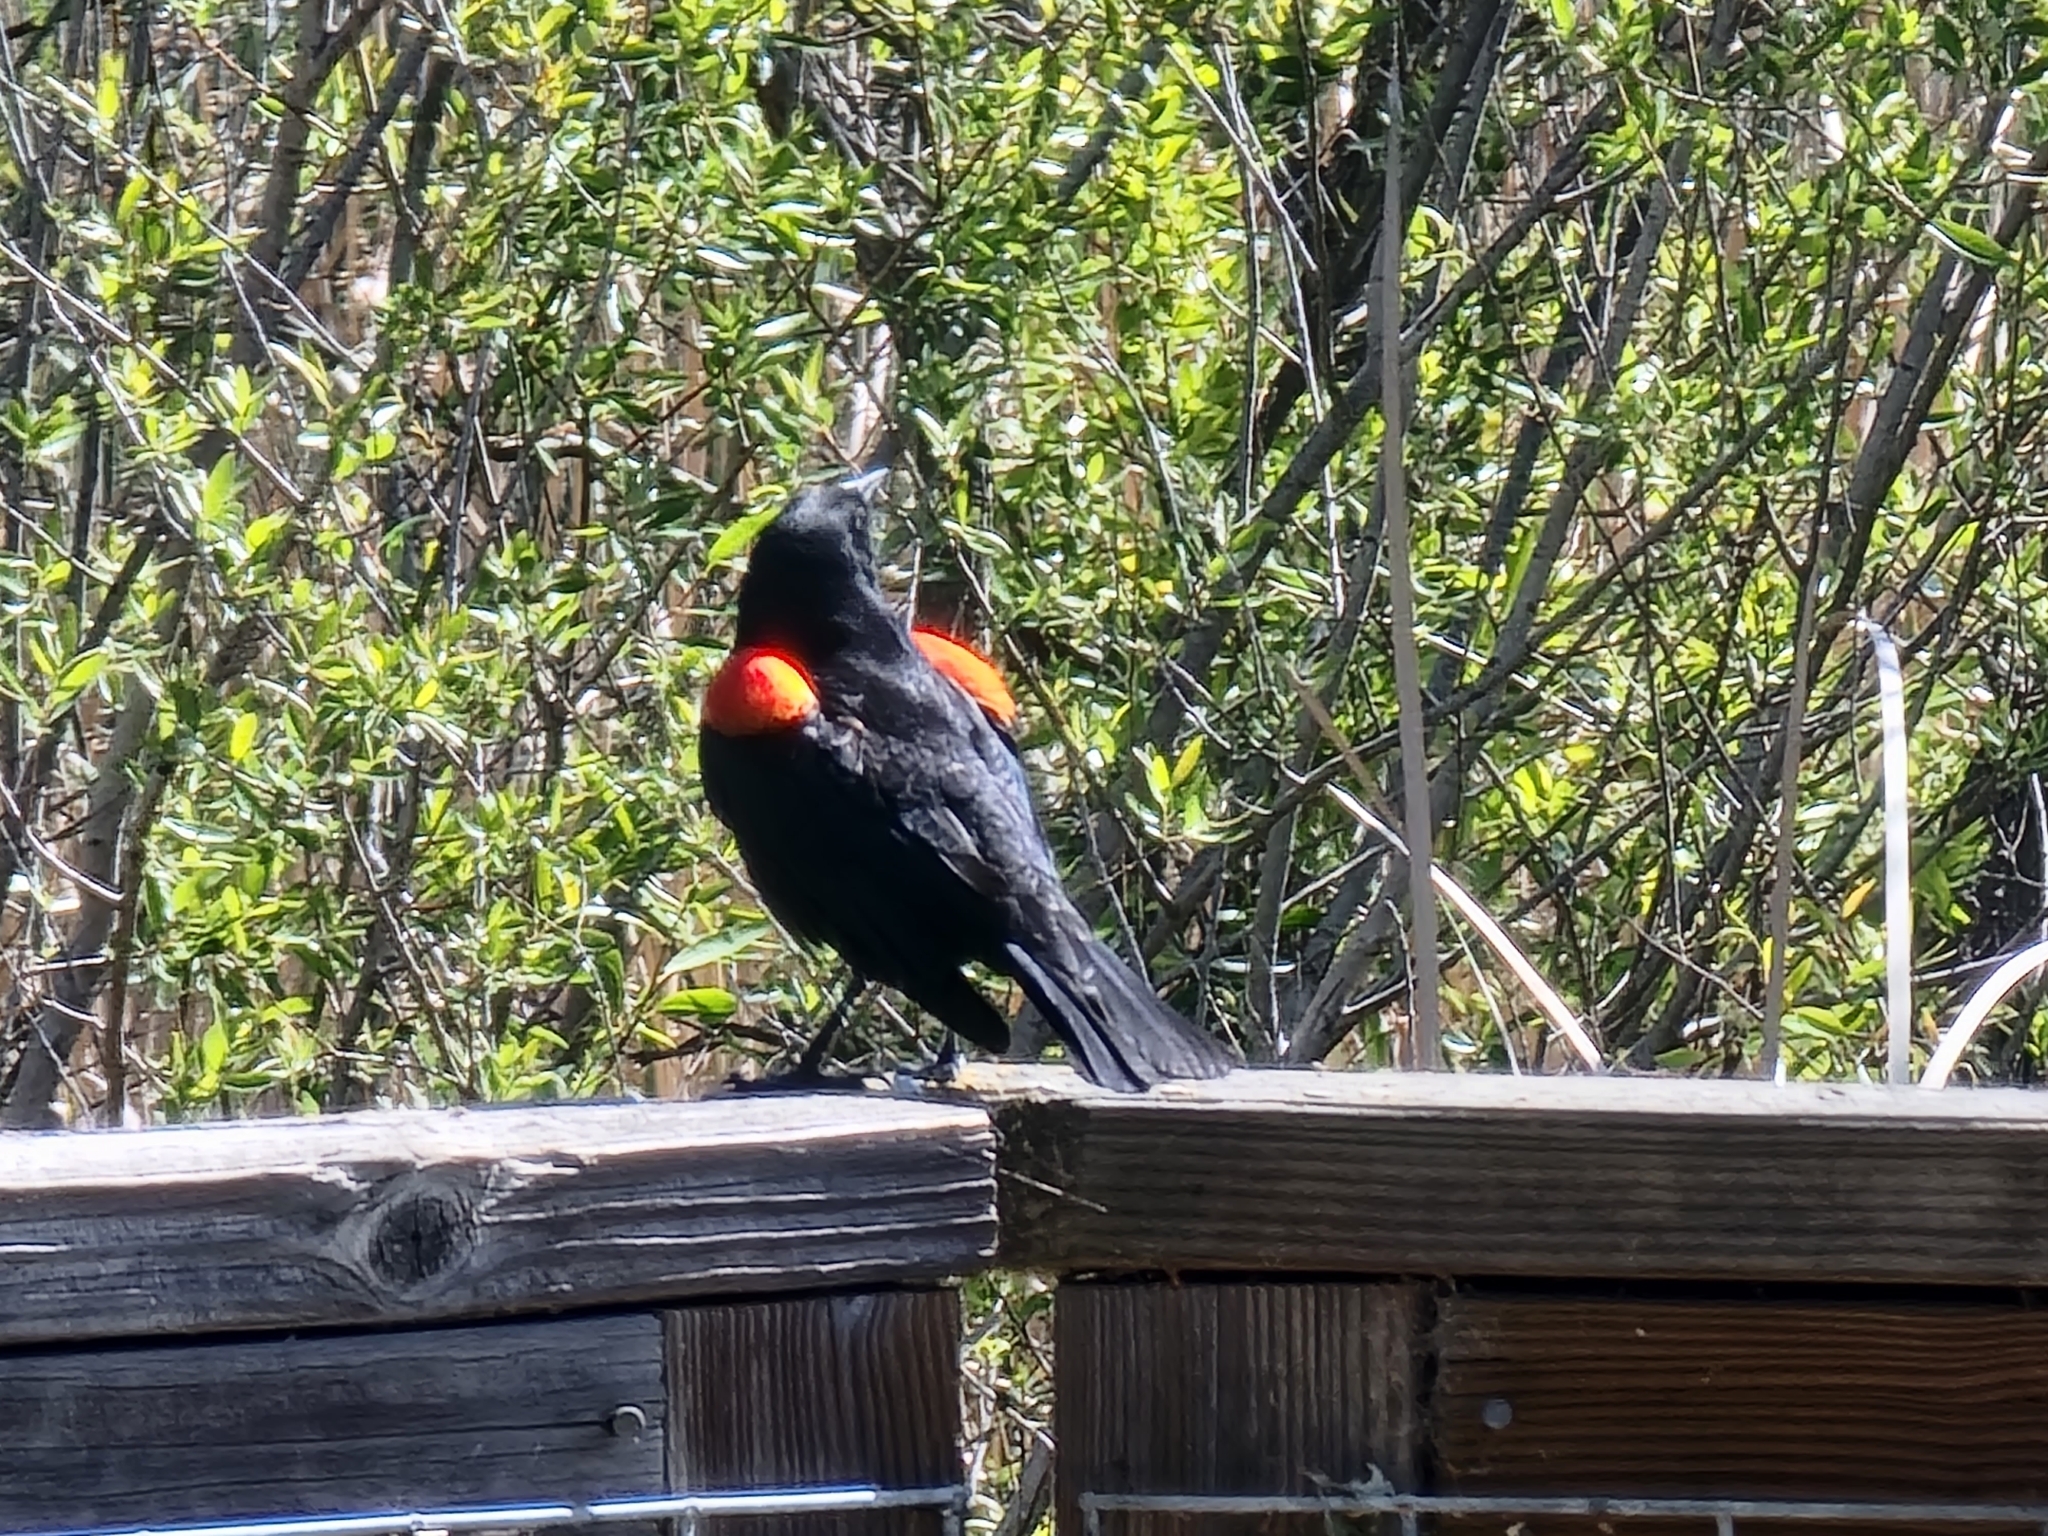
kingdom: Animalia
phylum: Chordata
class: Aves
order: Passeriformes
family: Icteridae
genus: Agelaius
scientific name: Agelaius phoeniceus
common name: Red-winged blackbird
